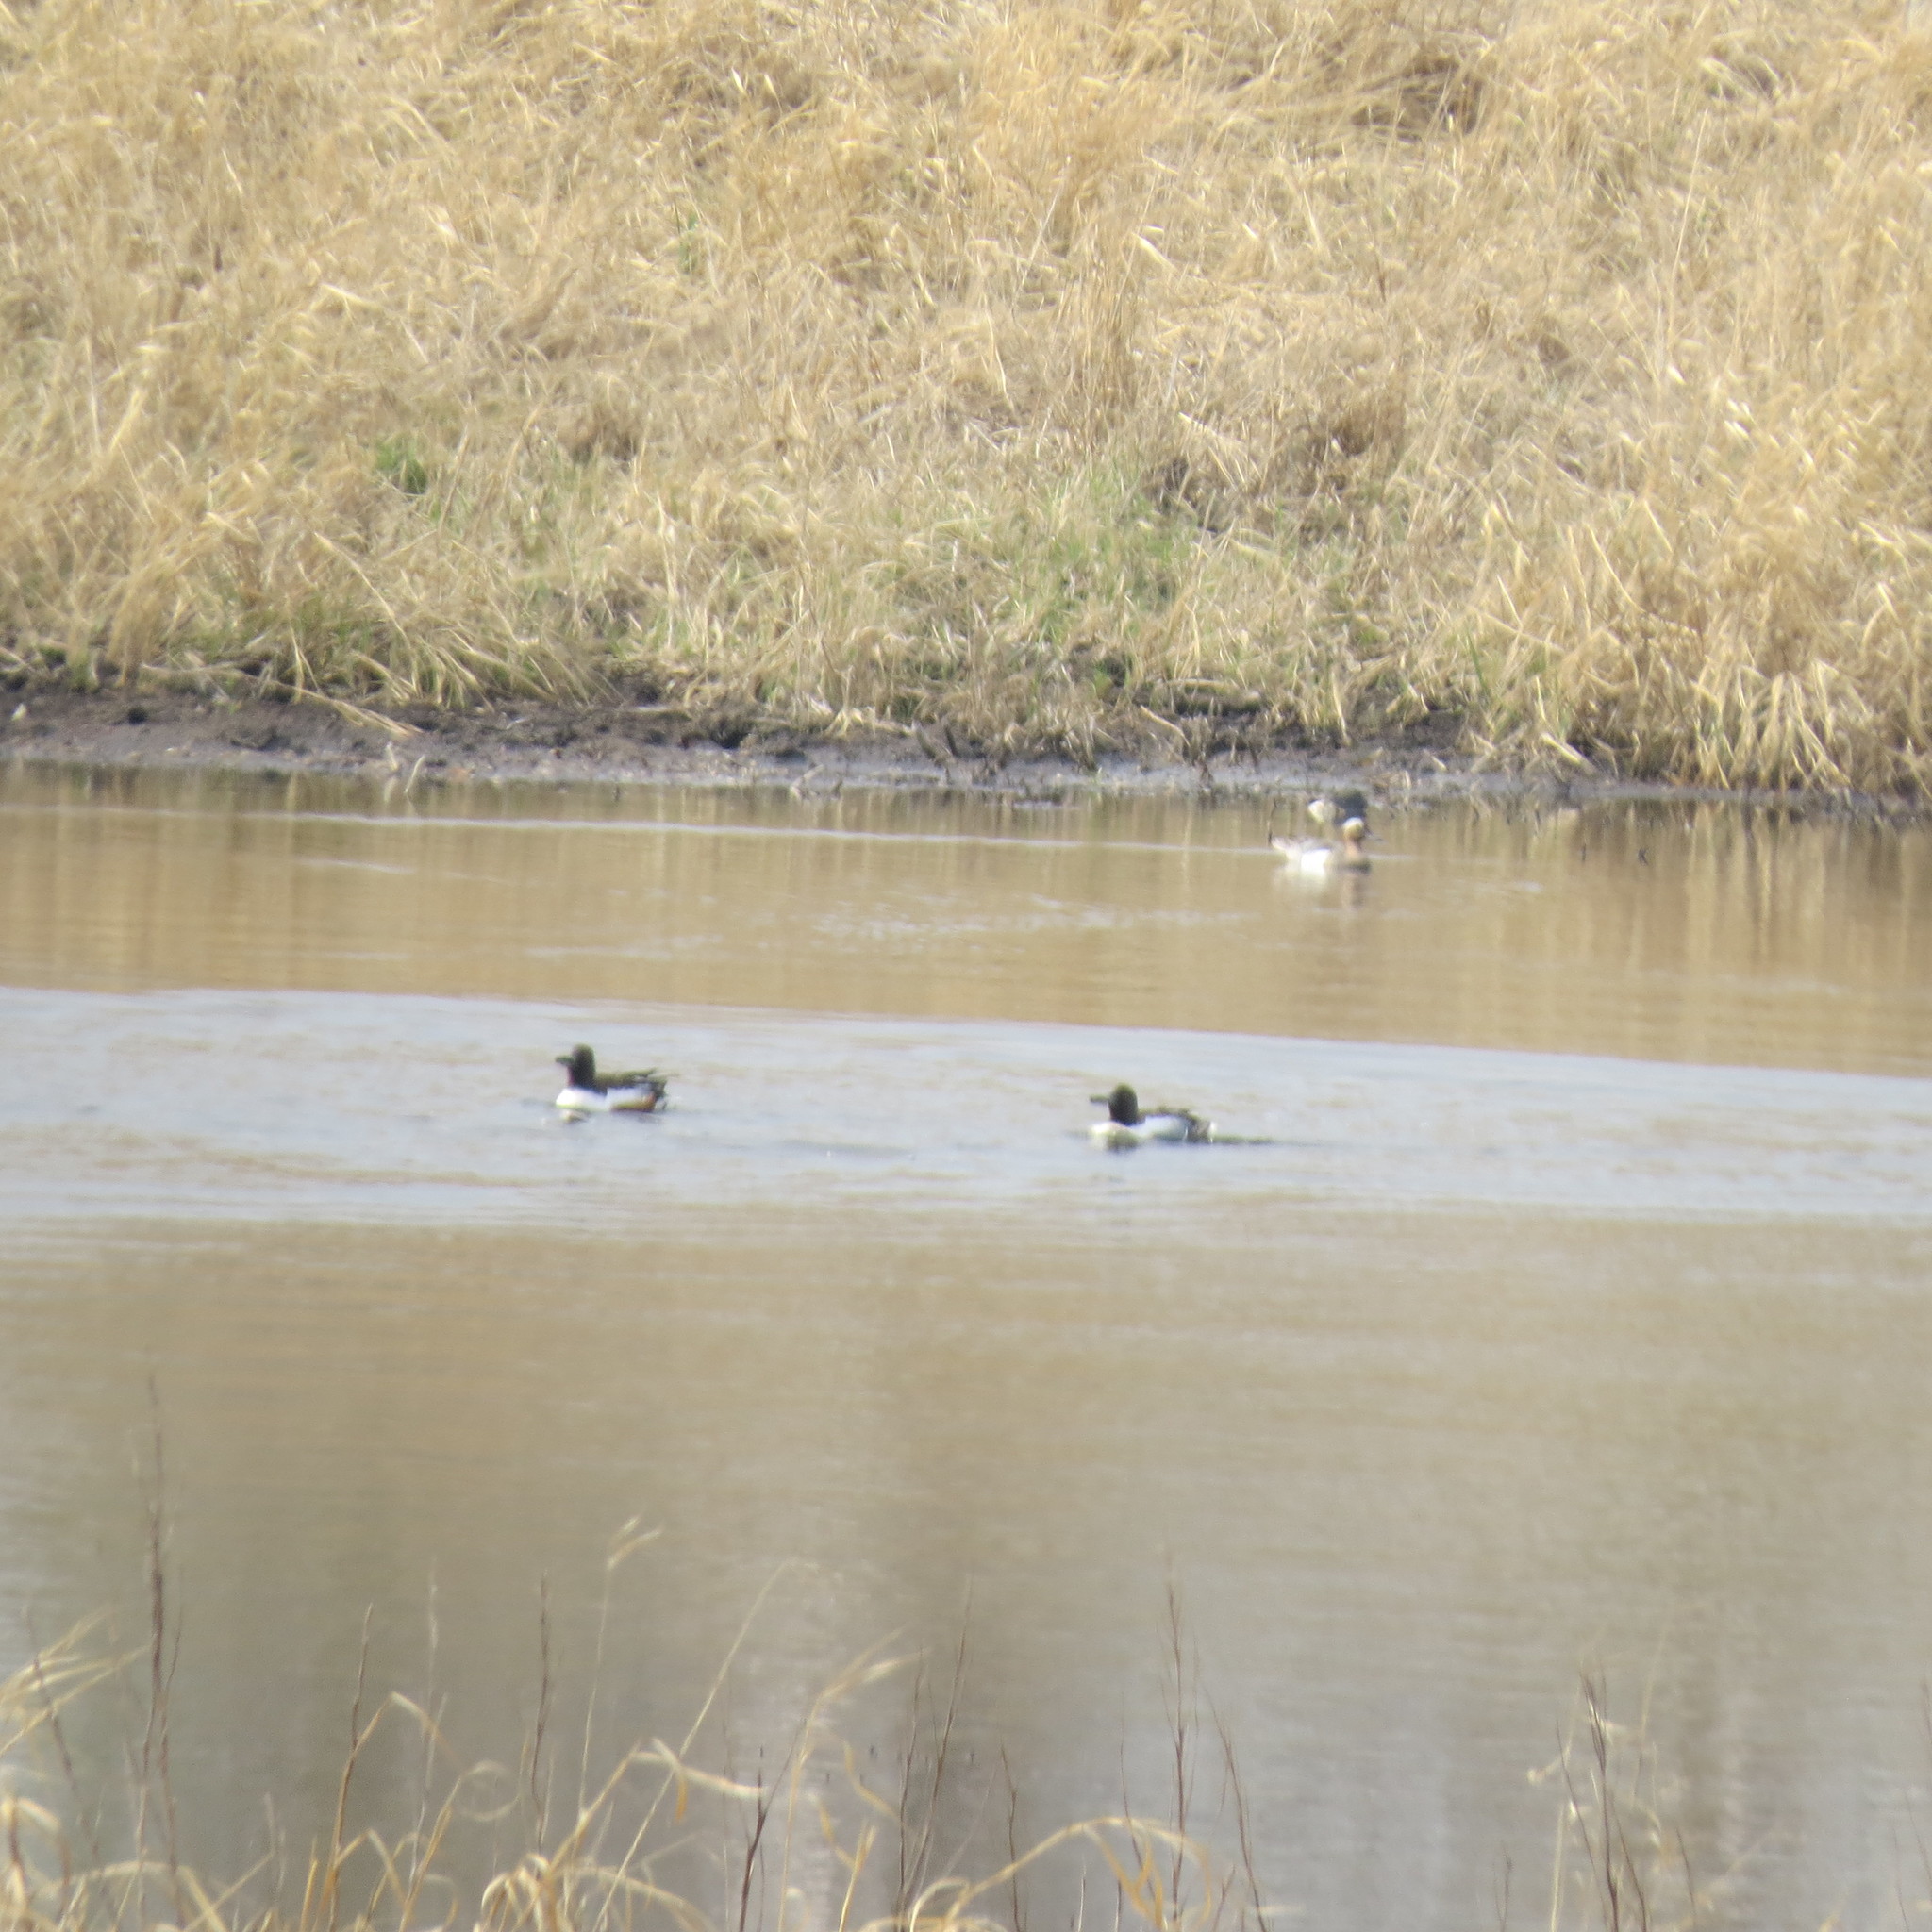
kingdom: Animalia
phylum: Chordata
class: Aves
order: Anseriformes
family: Anatidae
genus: Spatula
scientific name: Spatula clypeata
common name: Northern shoveler
